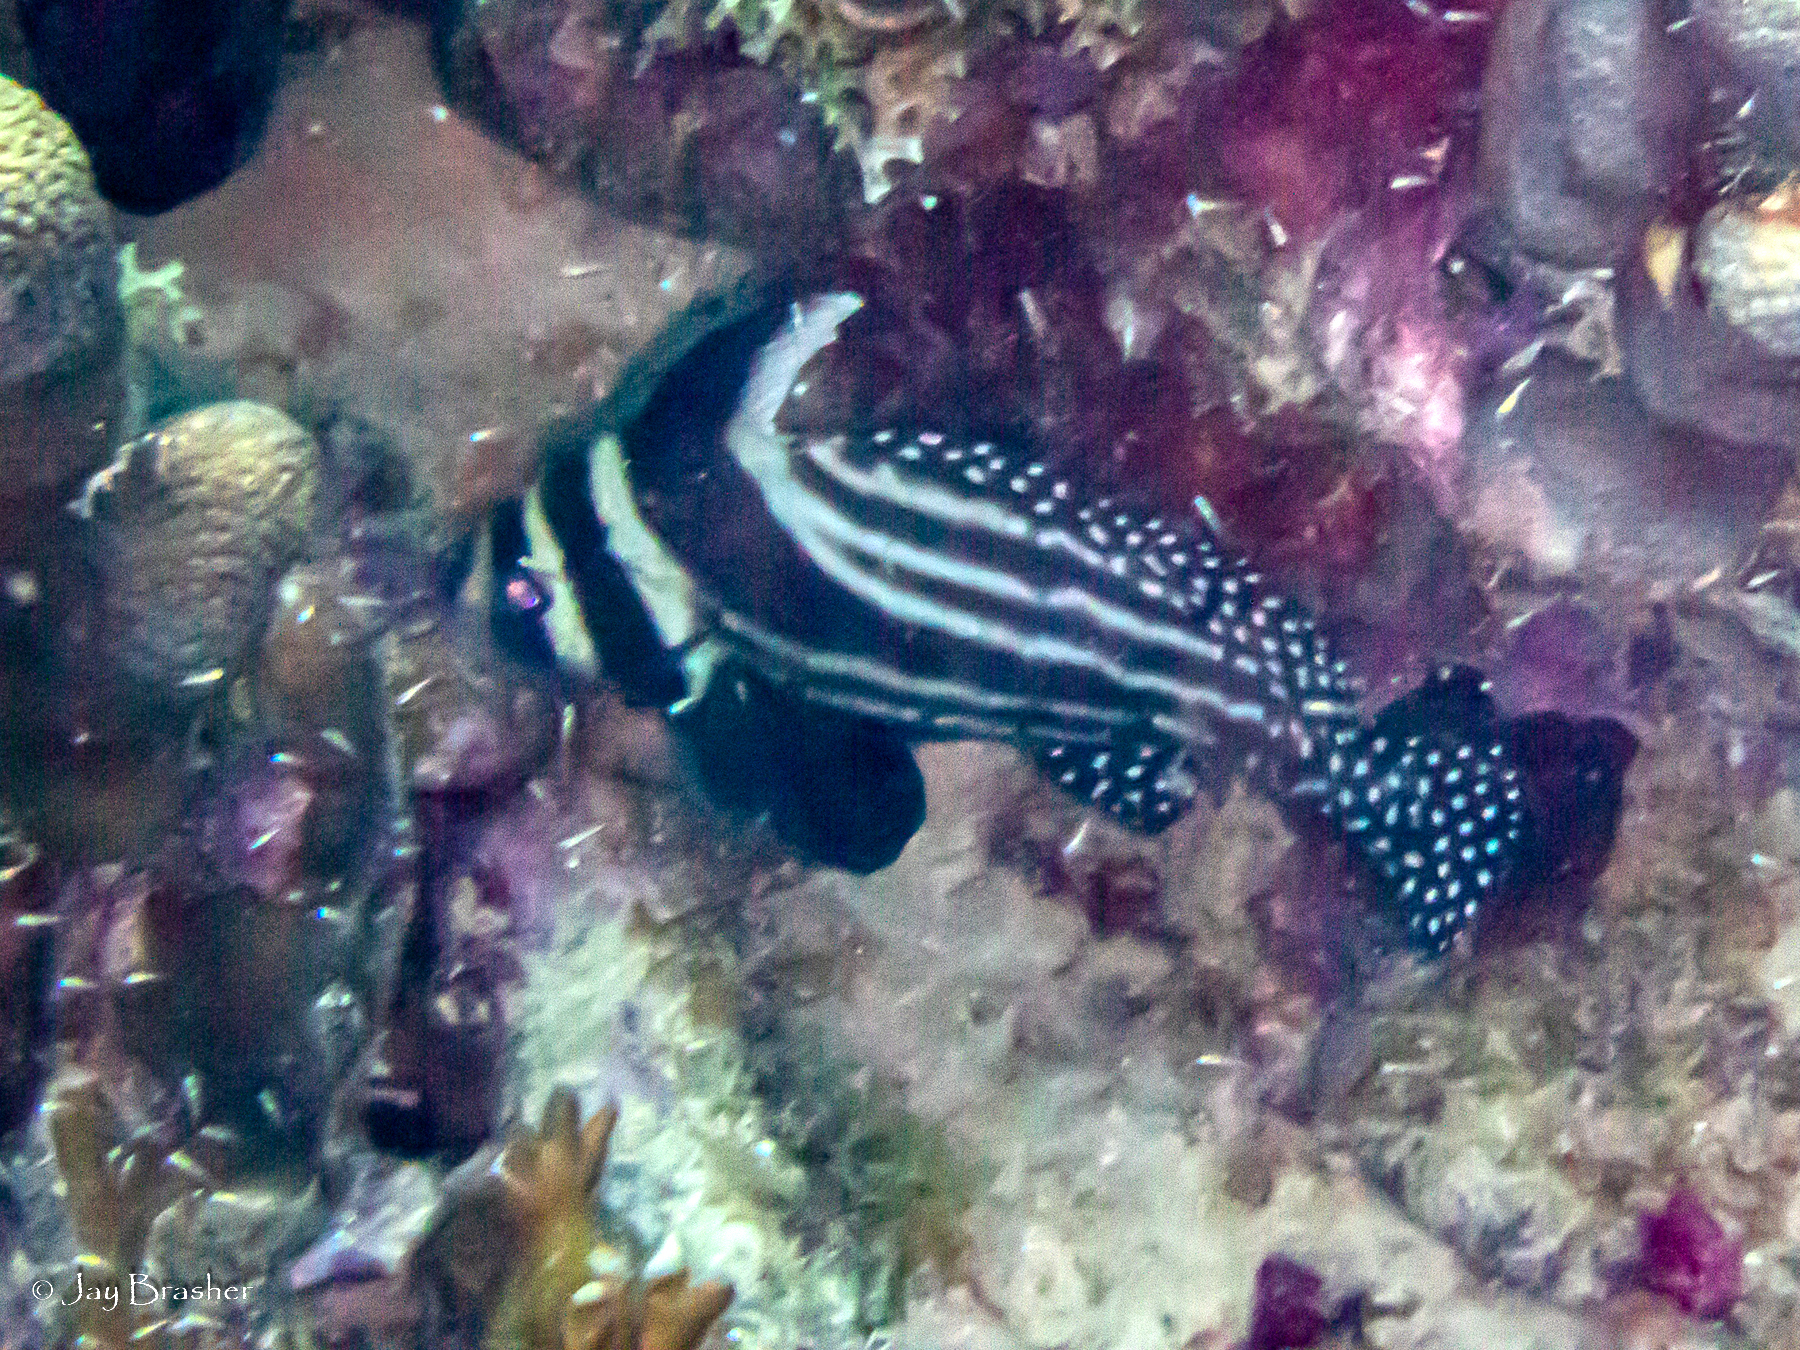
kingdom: Animalia
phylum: Chordata
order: Perciformes
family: Sciaenidae
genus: Equetus
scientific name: Equetus punctatus
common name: Spotted drum
